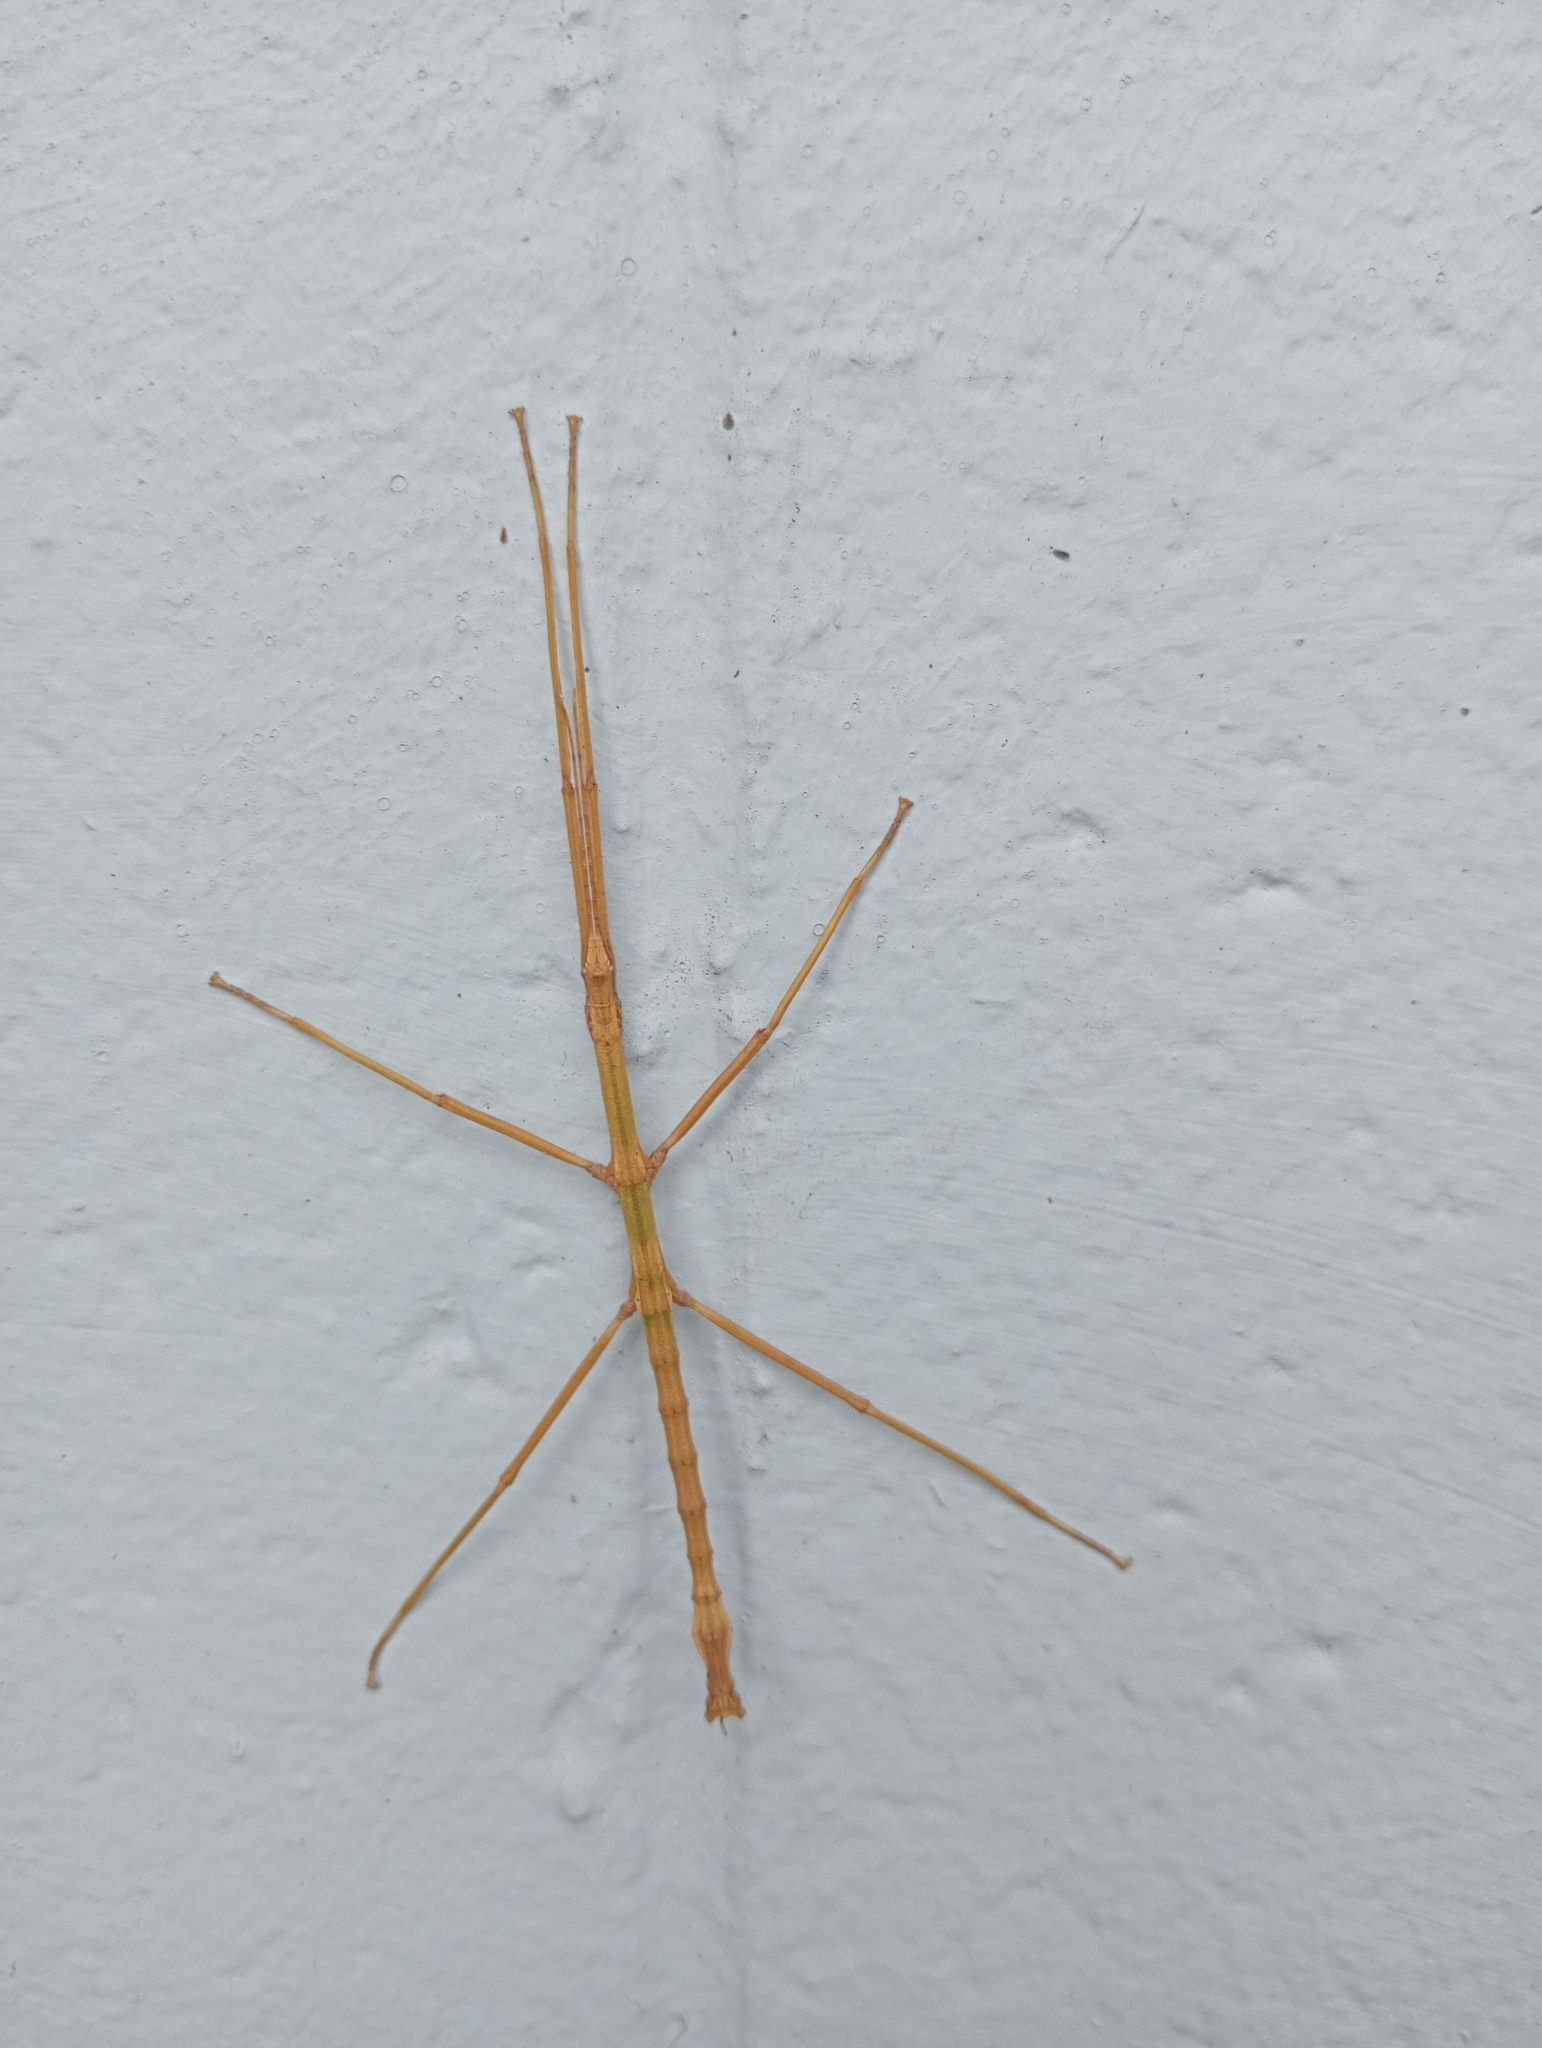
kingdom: Animalia
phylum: Arthropoda
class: Insecta
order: Phasmida
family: Phasmatidae
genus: Niveaphasma
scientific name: Niveaphasma annulatum
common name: Hutton's stick insect
